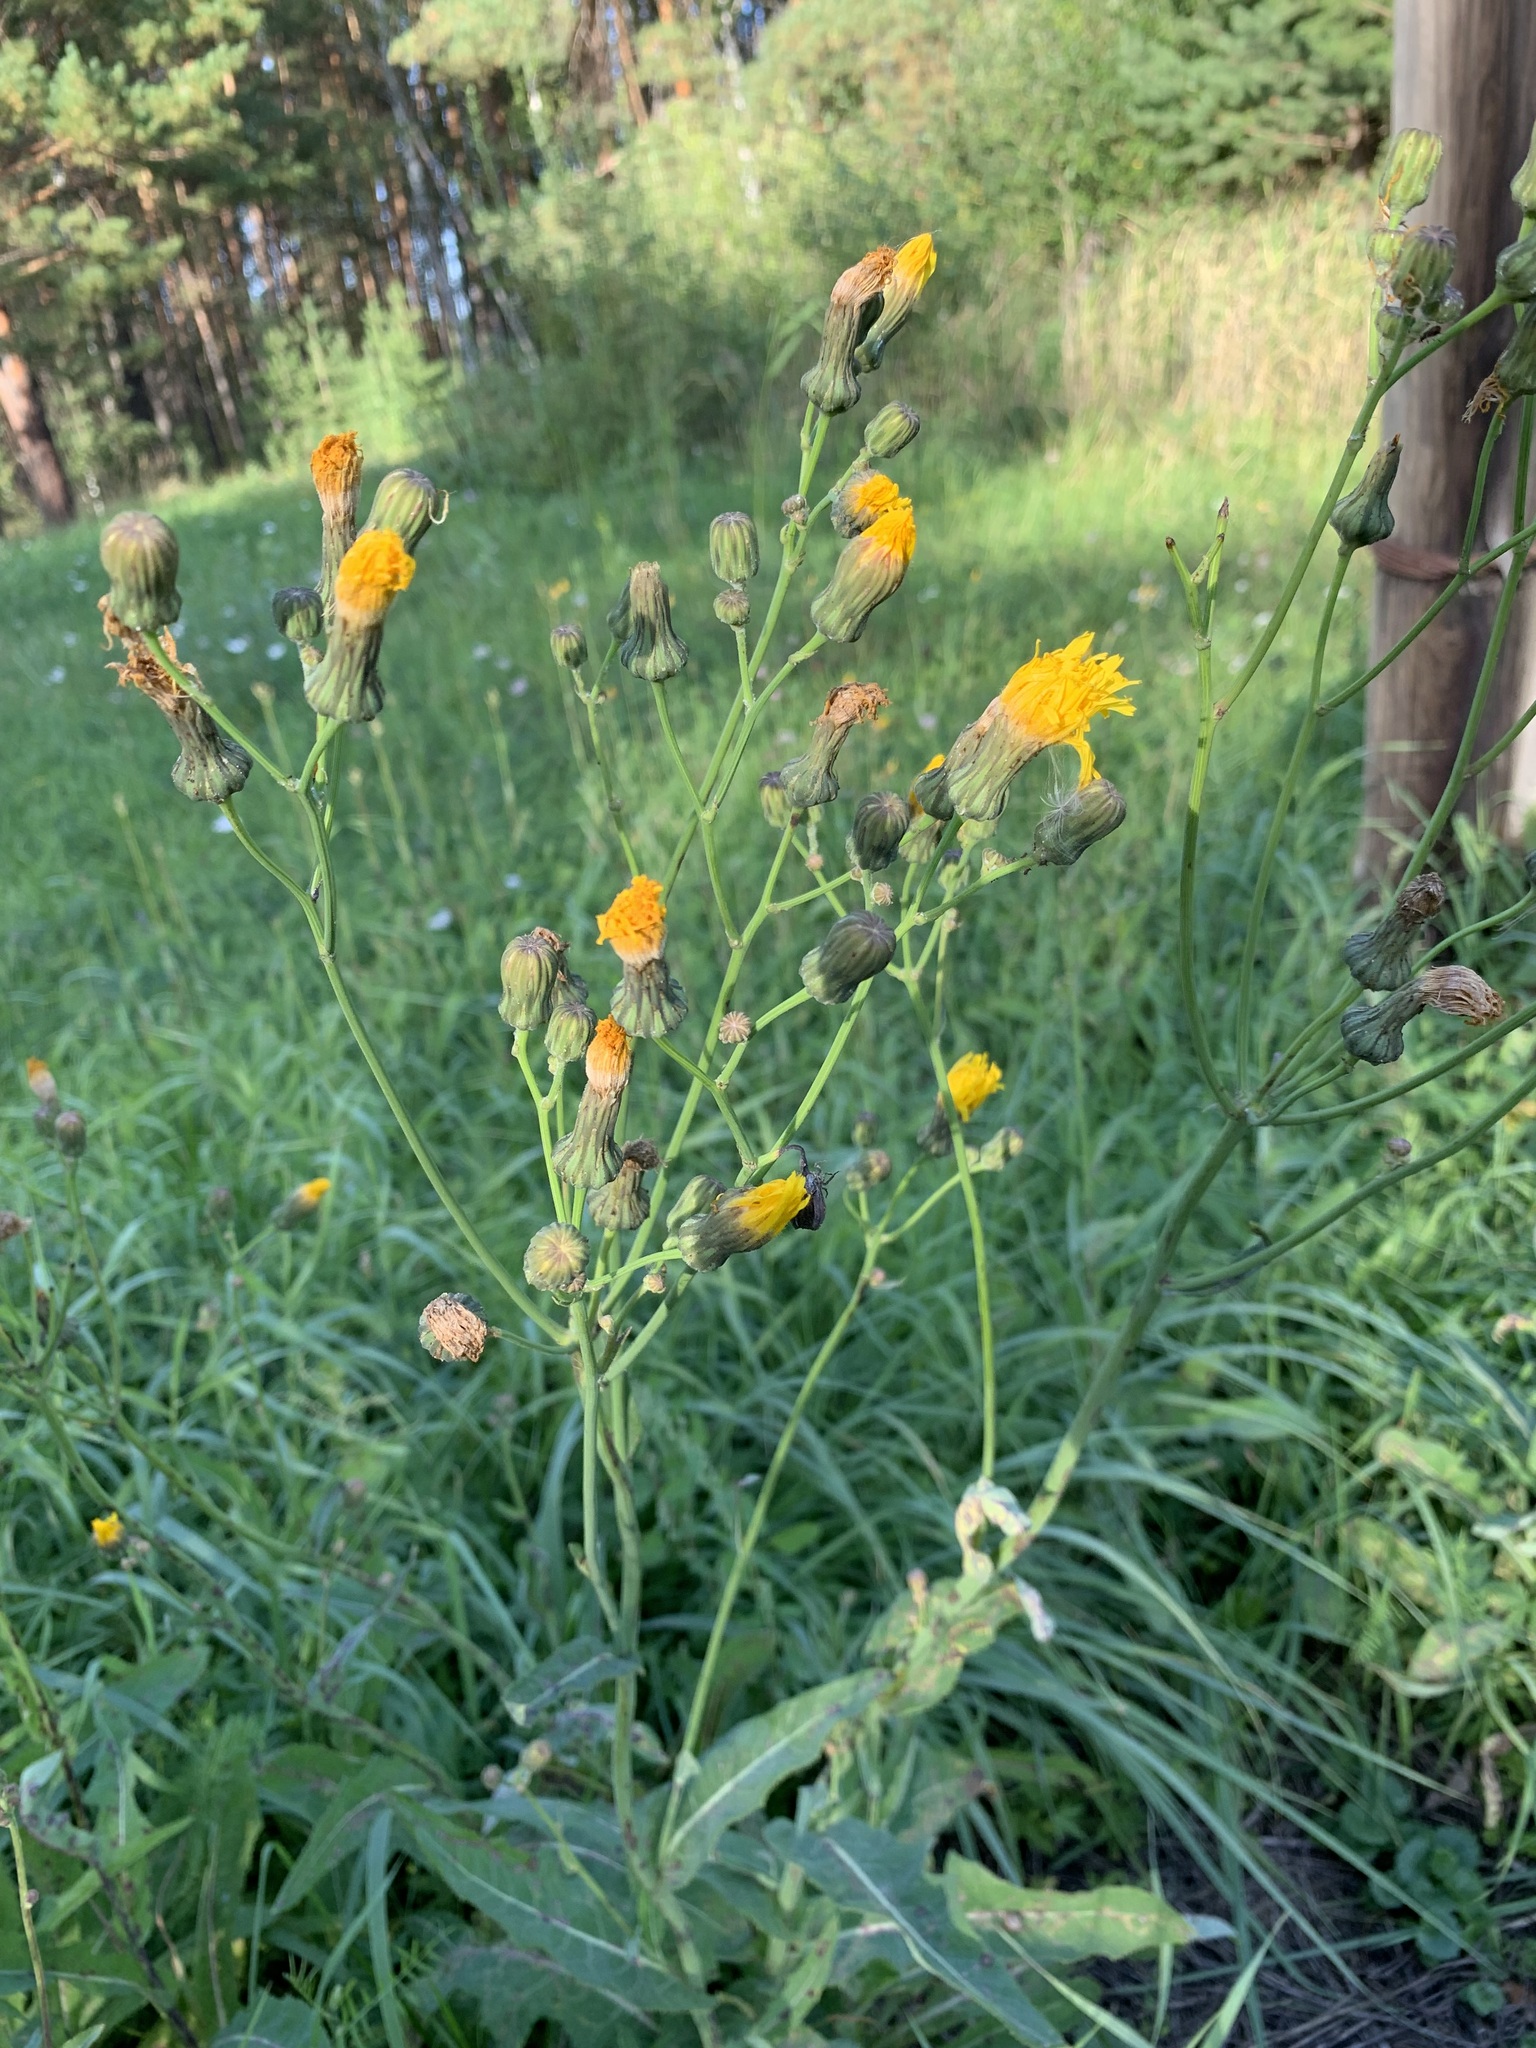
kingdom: Plantae
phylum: Tracheophyta
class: Magnoliopsida
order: Asterales
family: Asteraceae
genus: Sonchus
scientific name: Sonchus arvensis
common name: Perennial sow-thistle
